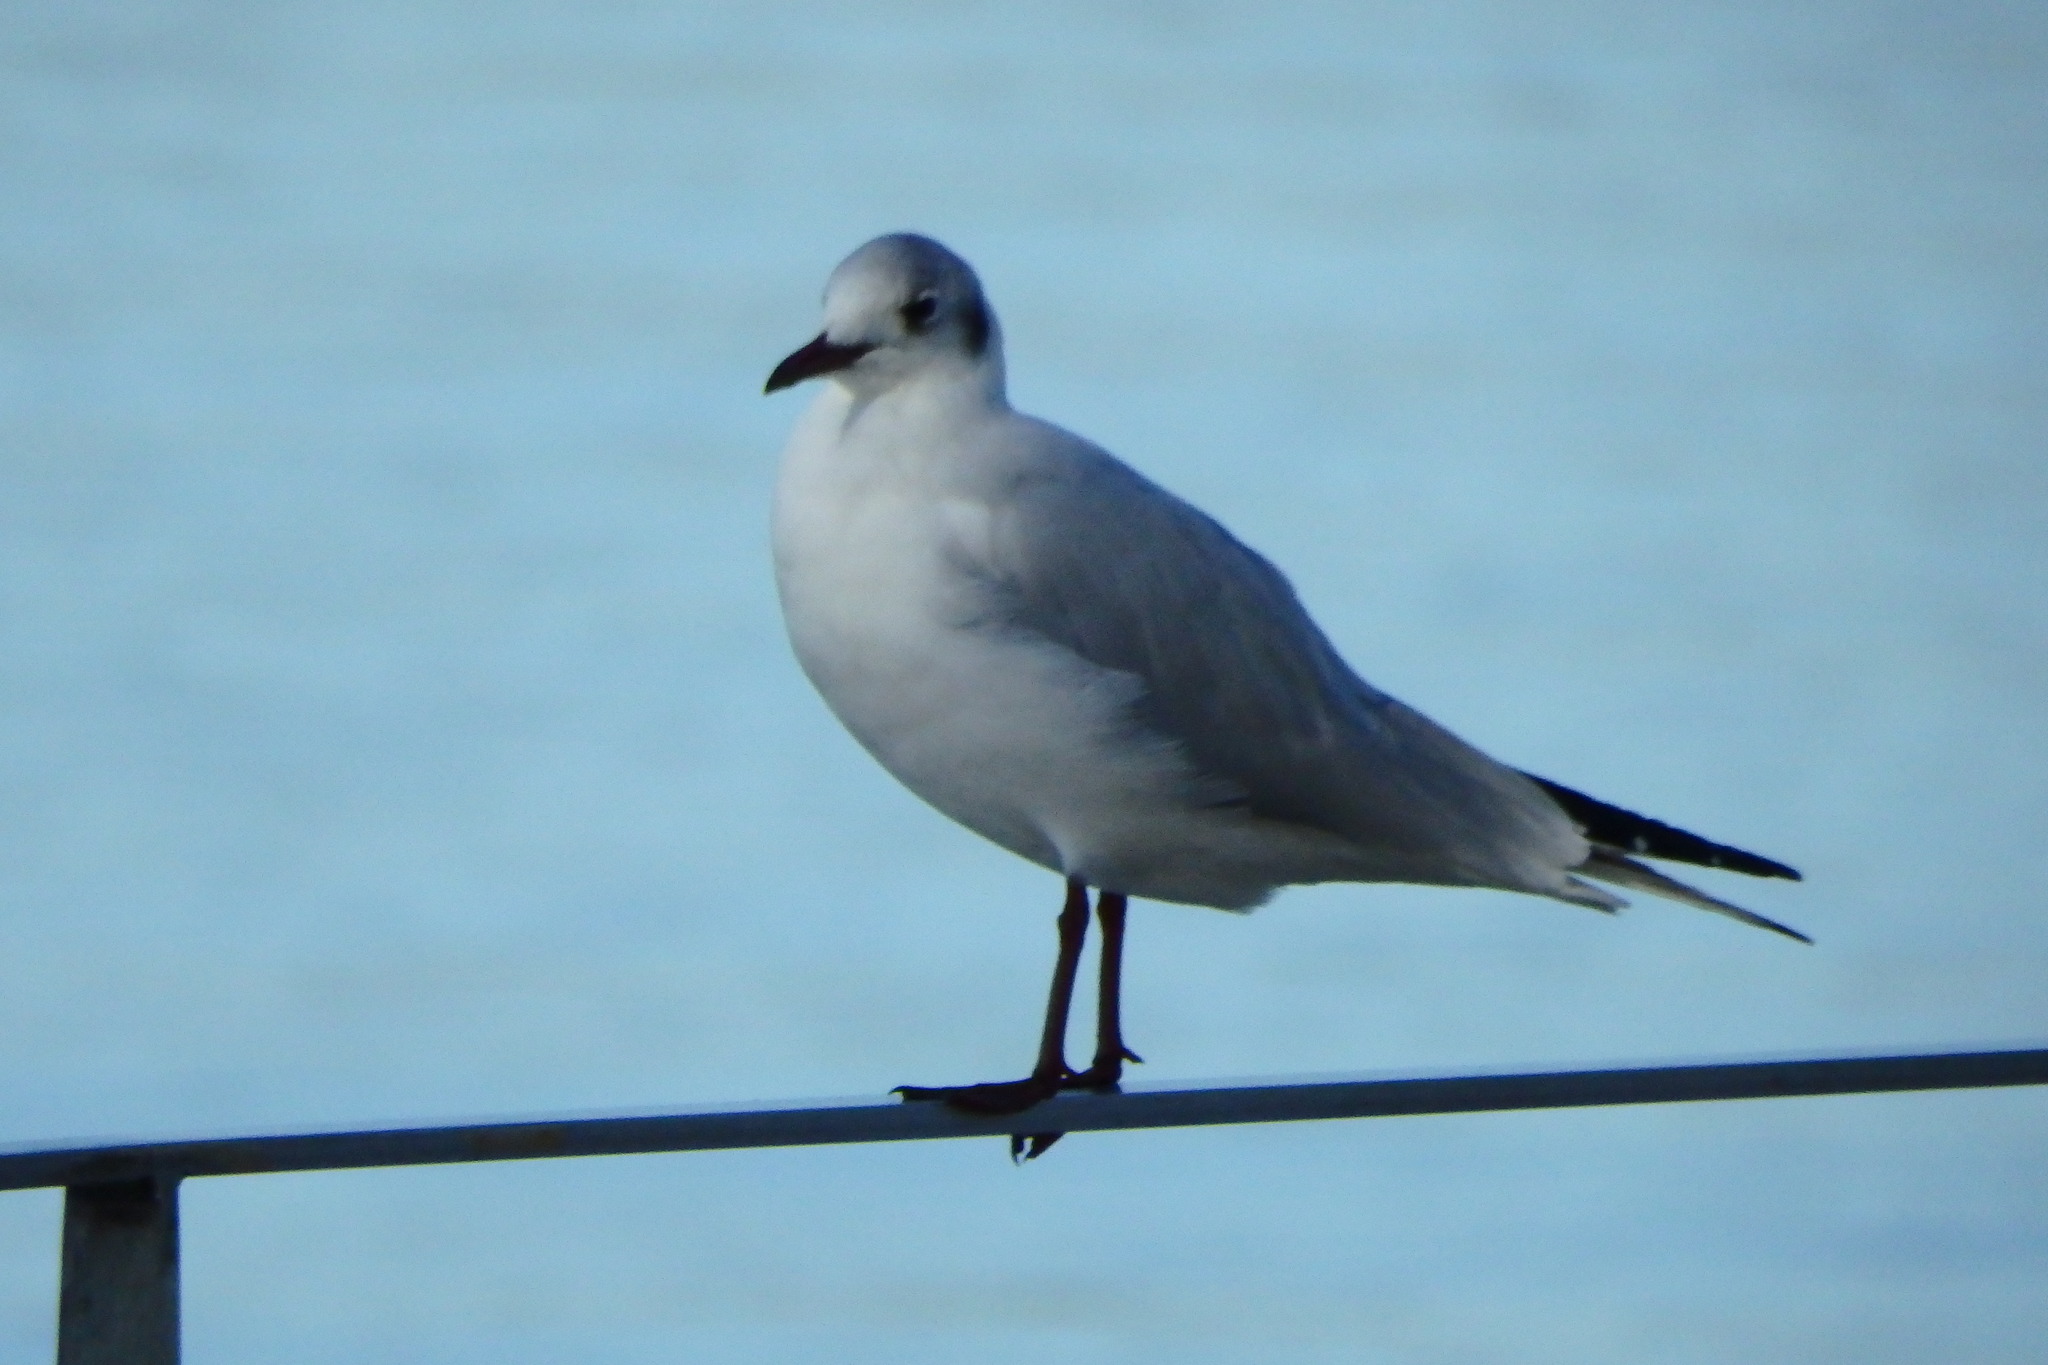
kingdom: Animalia
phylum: Chordata
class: Aves
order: Charadriiformes
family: Laridae
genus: Chroicocephalus
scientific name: Chroicocephalus ridibundus
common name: Black-headed gull
